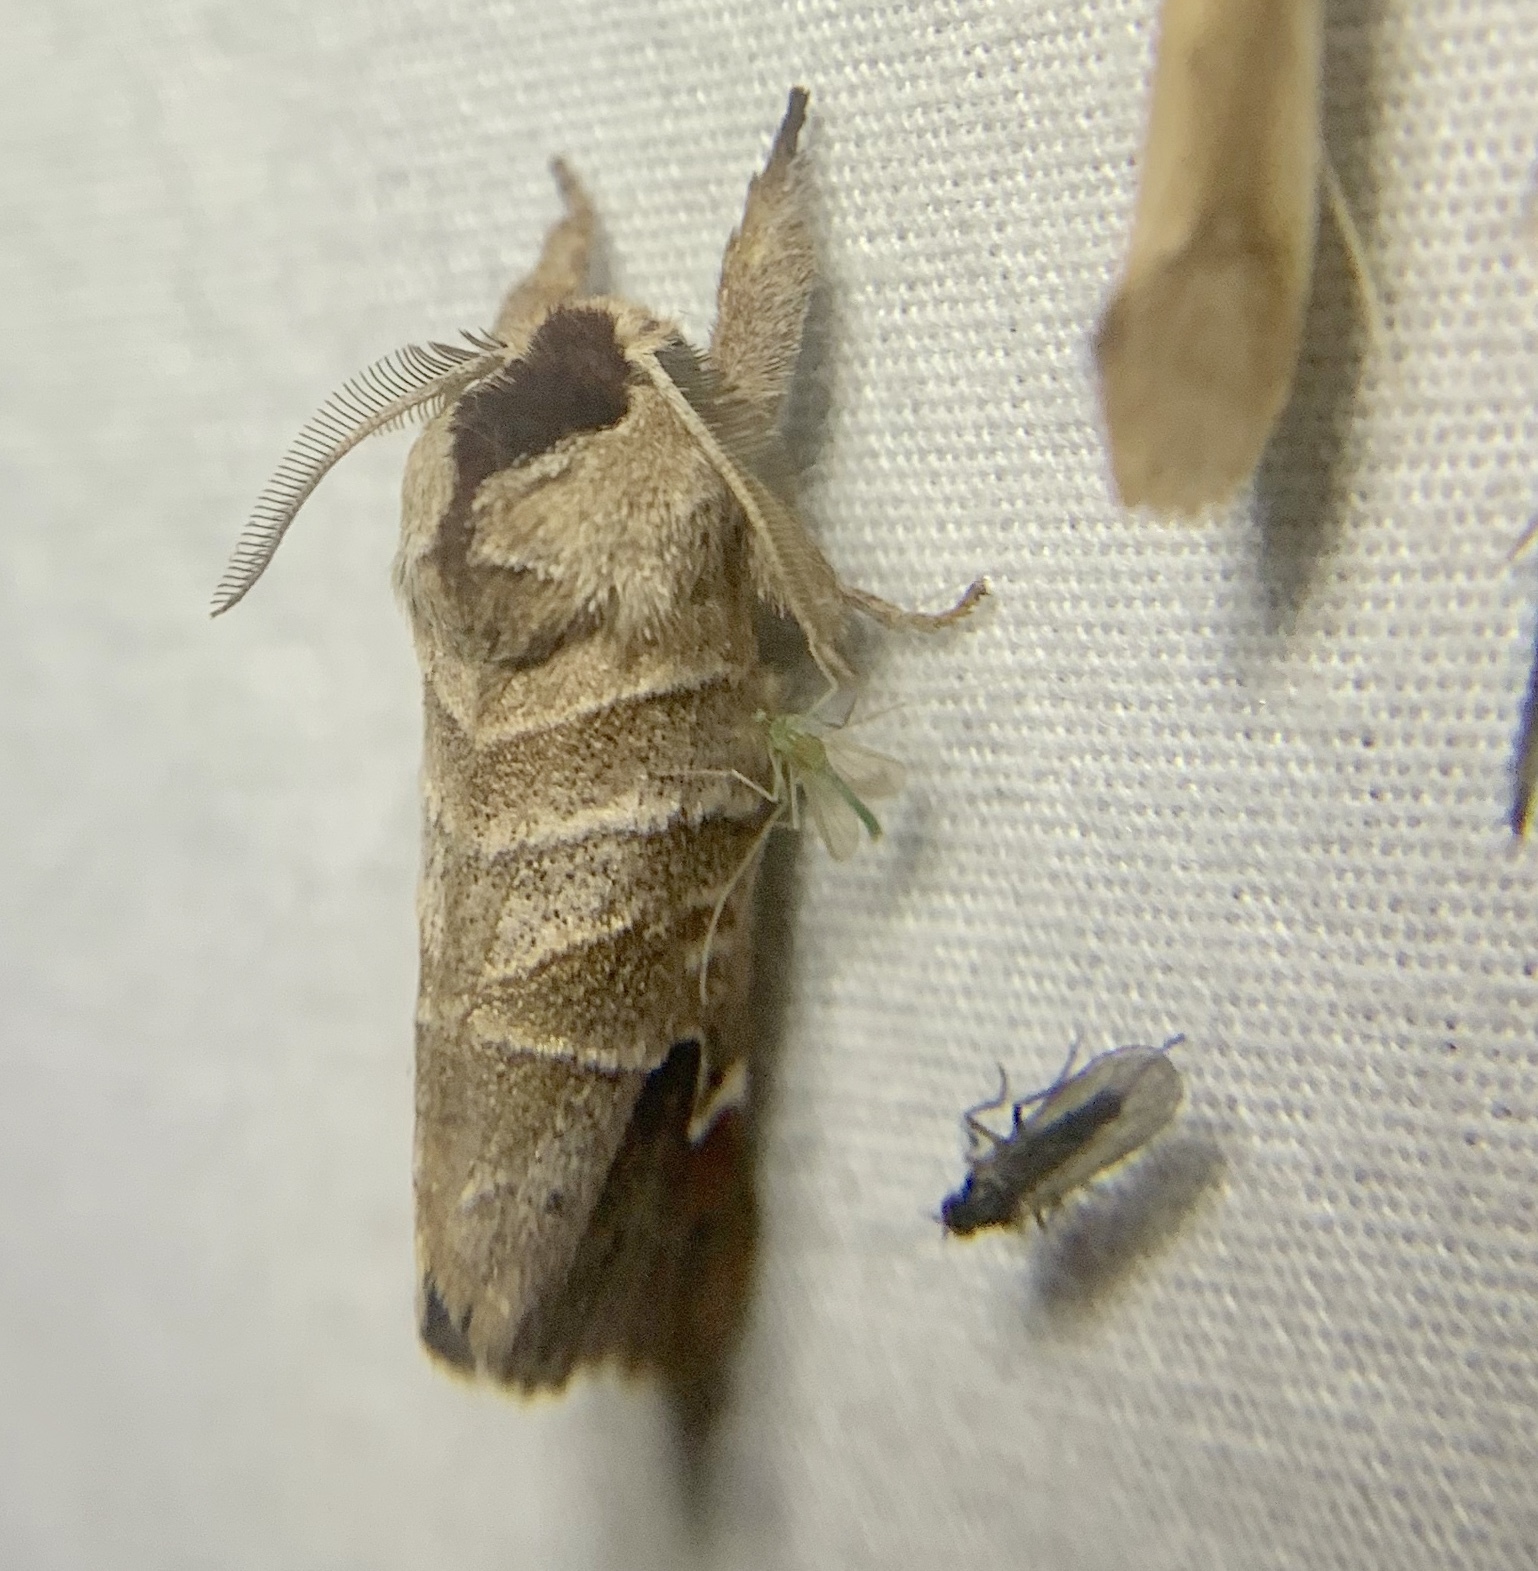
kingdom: Animalia
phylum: Arthropoda
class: Insecta
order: Lepidoptera
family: Notodontidae
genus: Clostera
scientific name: Clostera albosigma
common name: Sigmoid prominent
